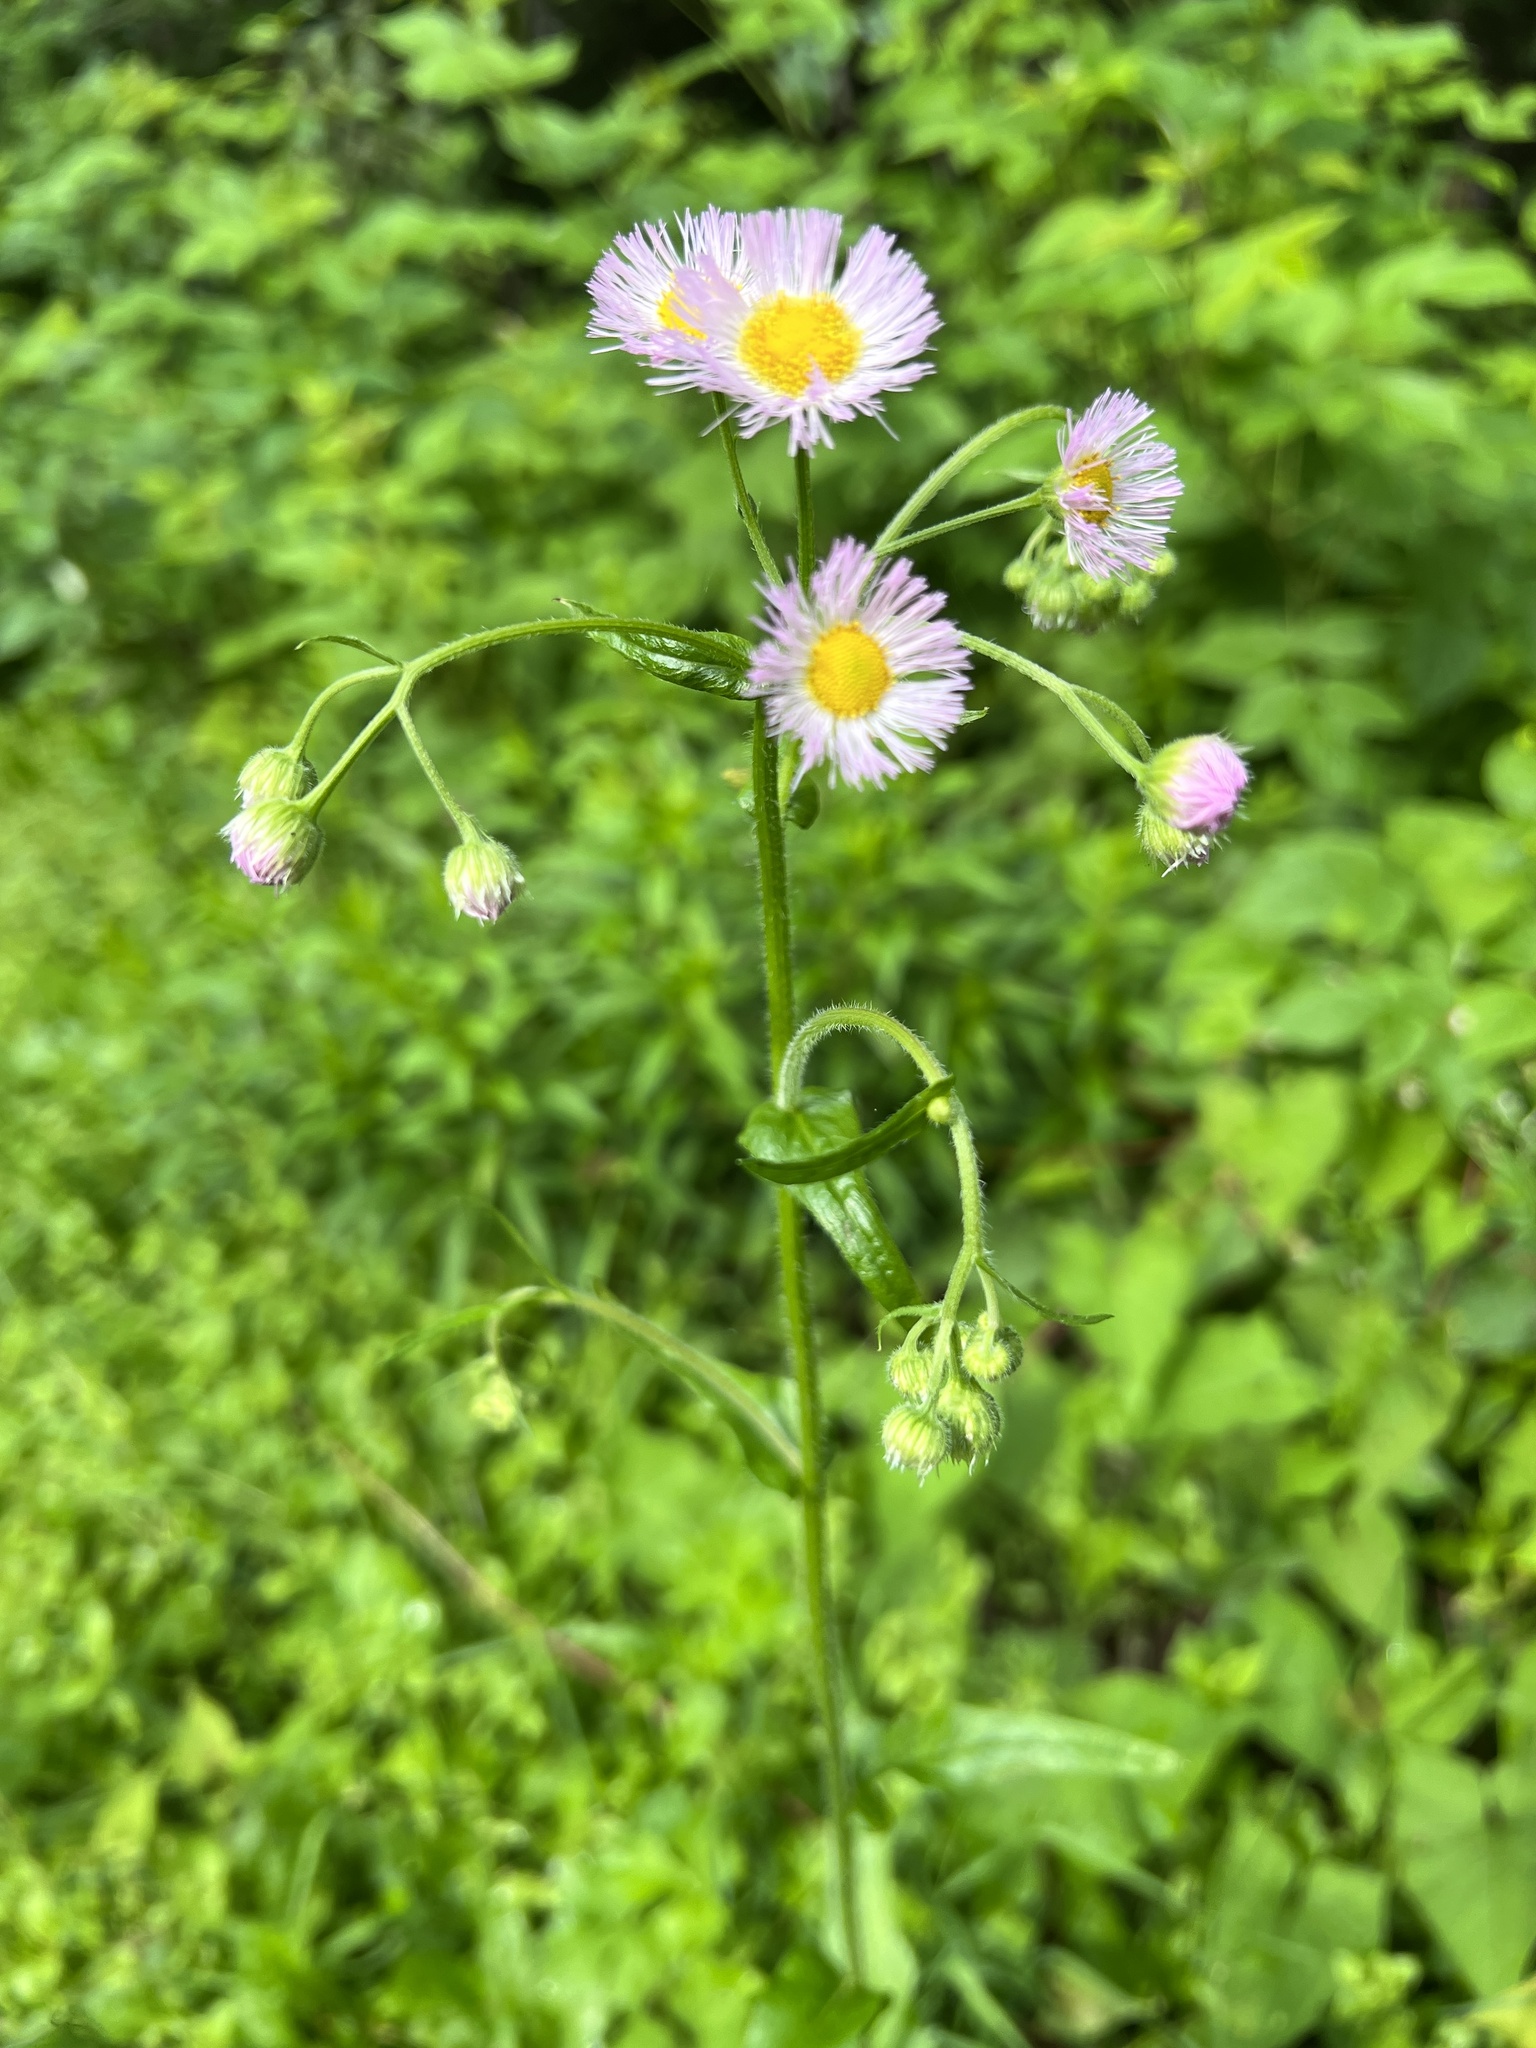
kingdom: Plantae
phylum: Tracheophyta
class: Magnoliopsida
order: Asterales
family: Asteraceae
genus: Erigeron
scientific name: Erigeron philadelphicus
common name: Robin's-plantain
